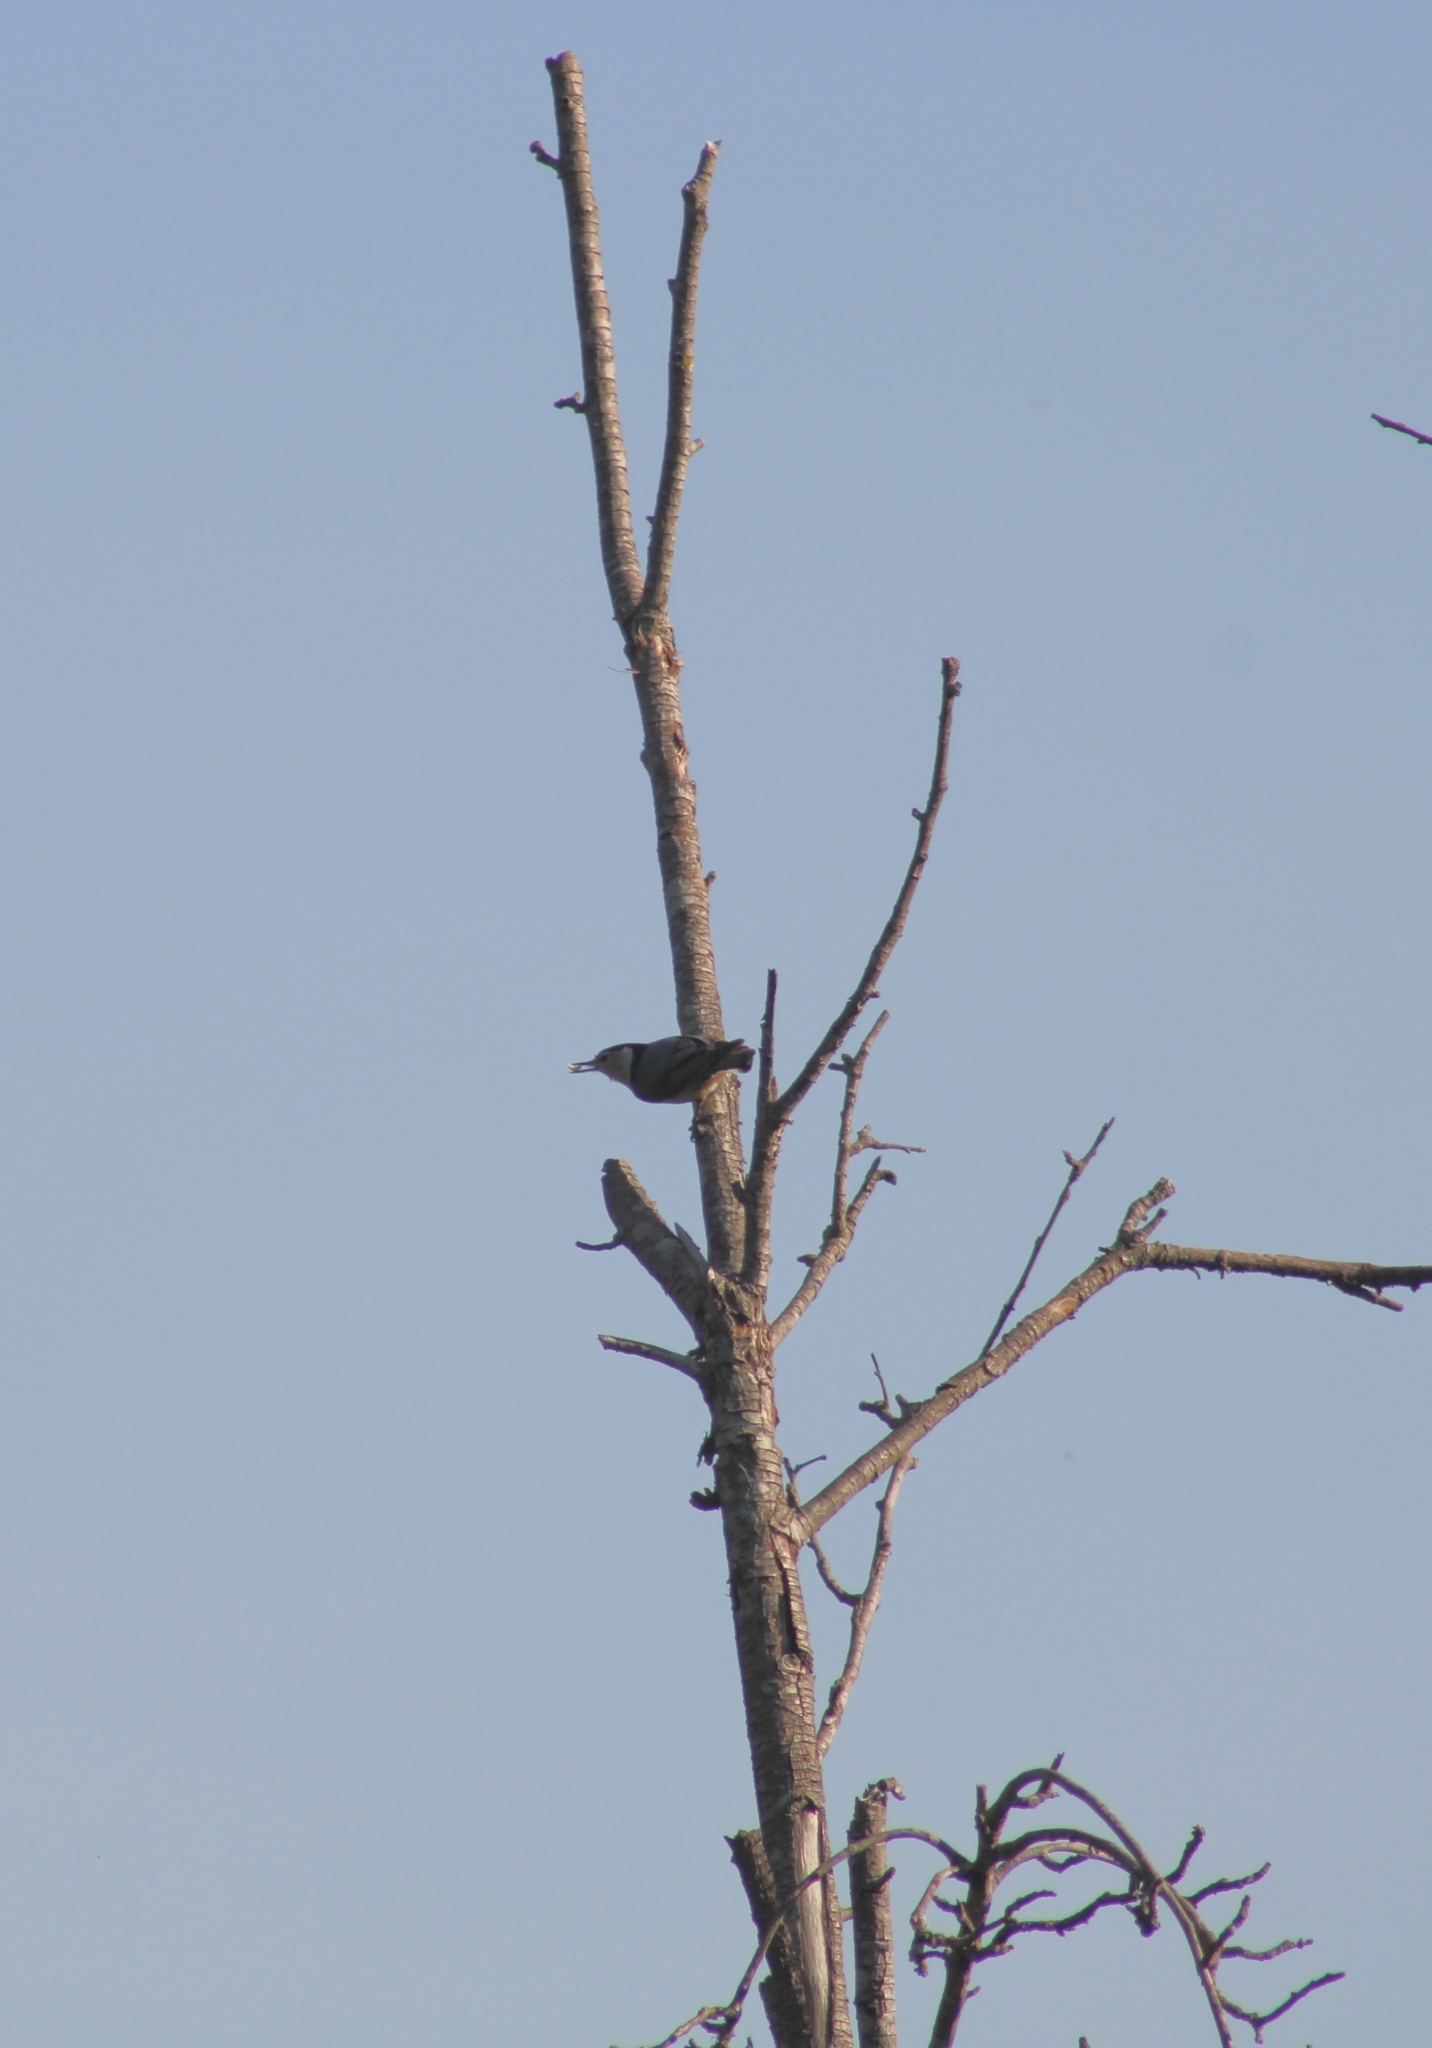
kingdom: Animalia
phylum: Chordata
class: Aves
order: Passeriformes
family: Sittidae
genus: Sitta
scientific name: Sitta carolinensis
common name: White-breasted nuthatch
